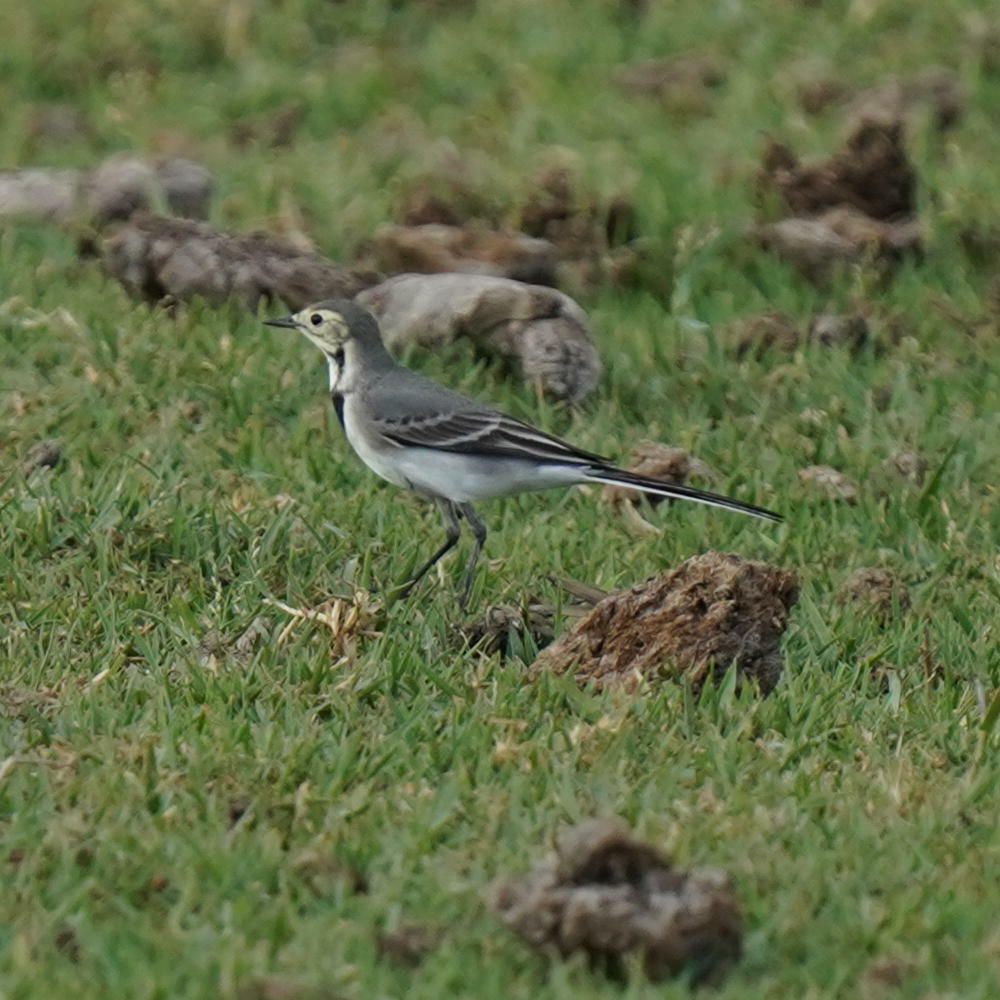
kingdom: Animalia
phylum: Chordata
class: Aves
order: Passeriformes
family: Motacillidae
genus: Motacilla
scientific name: Motacilla alba
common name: White wagtail
